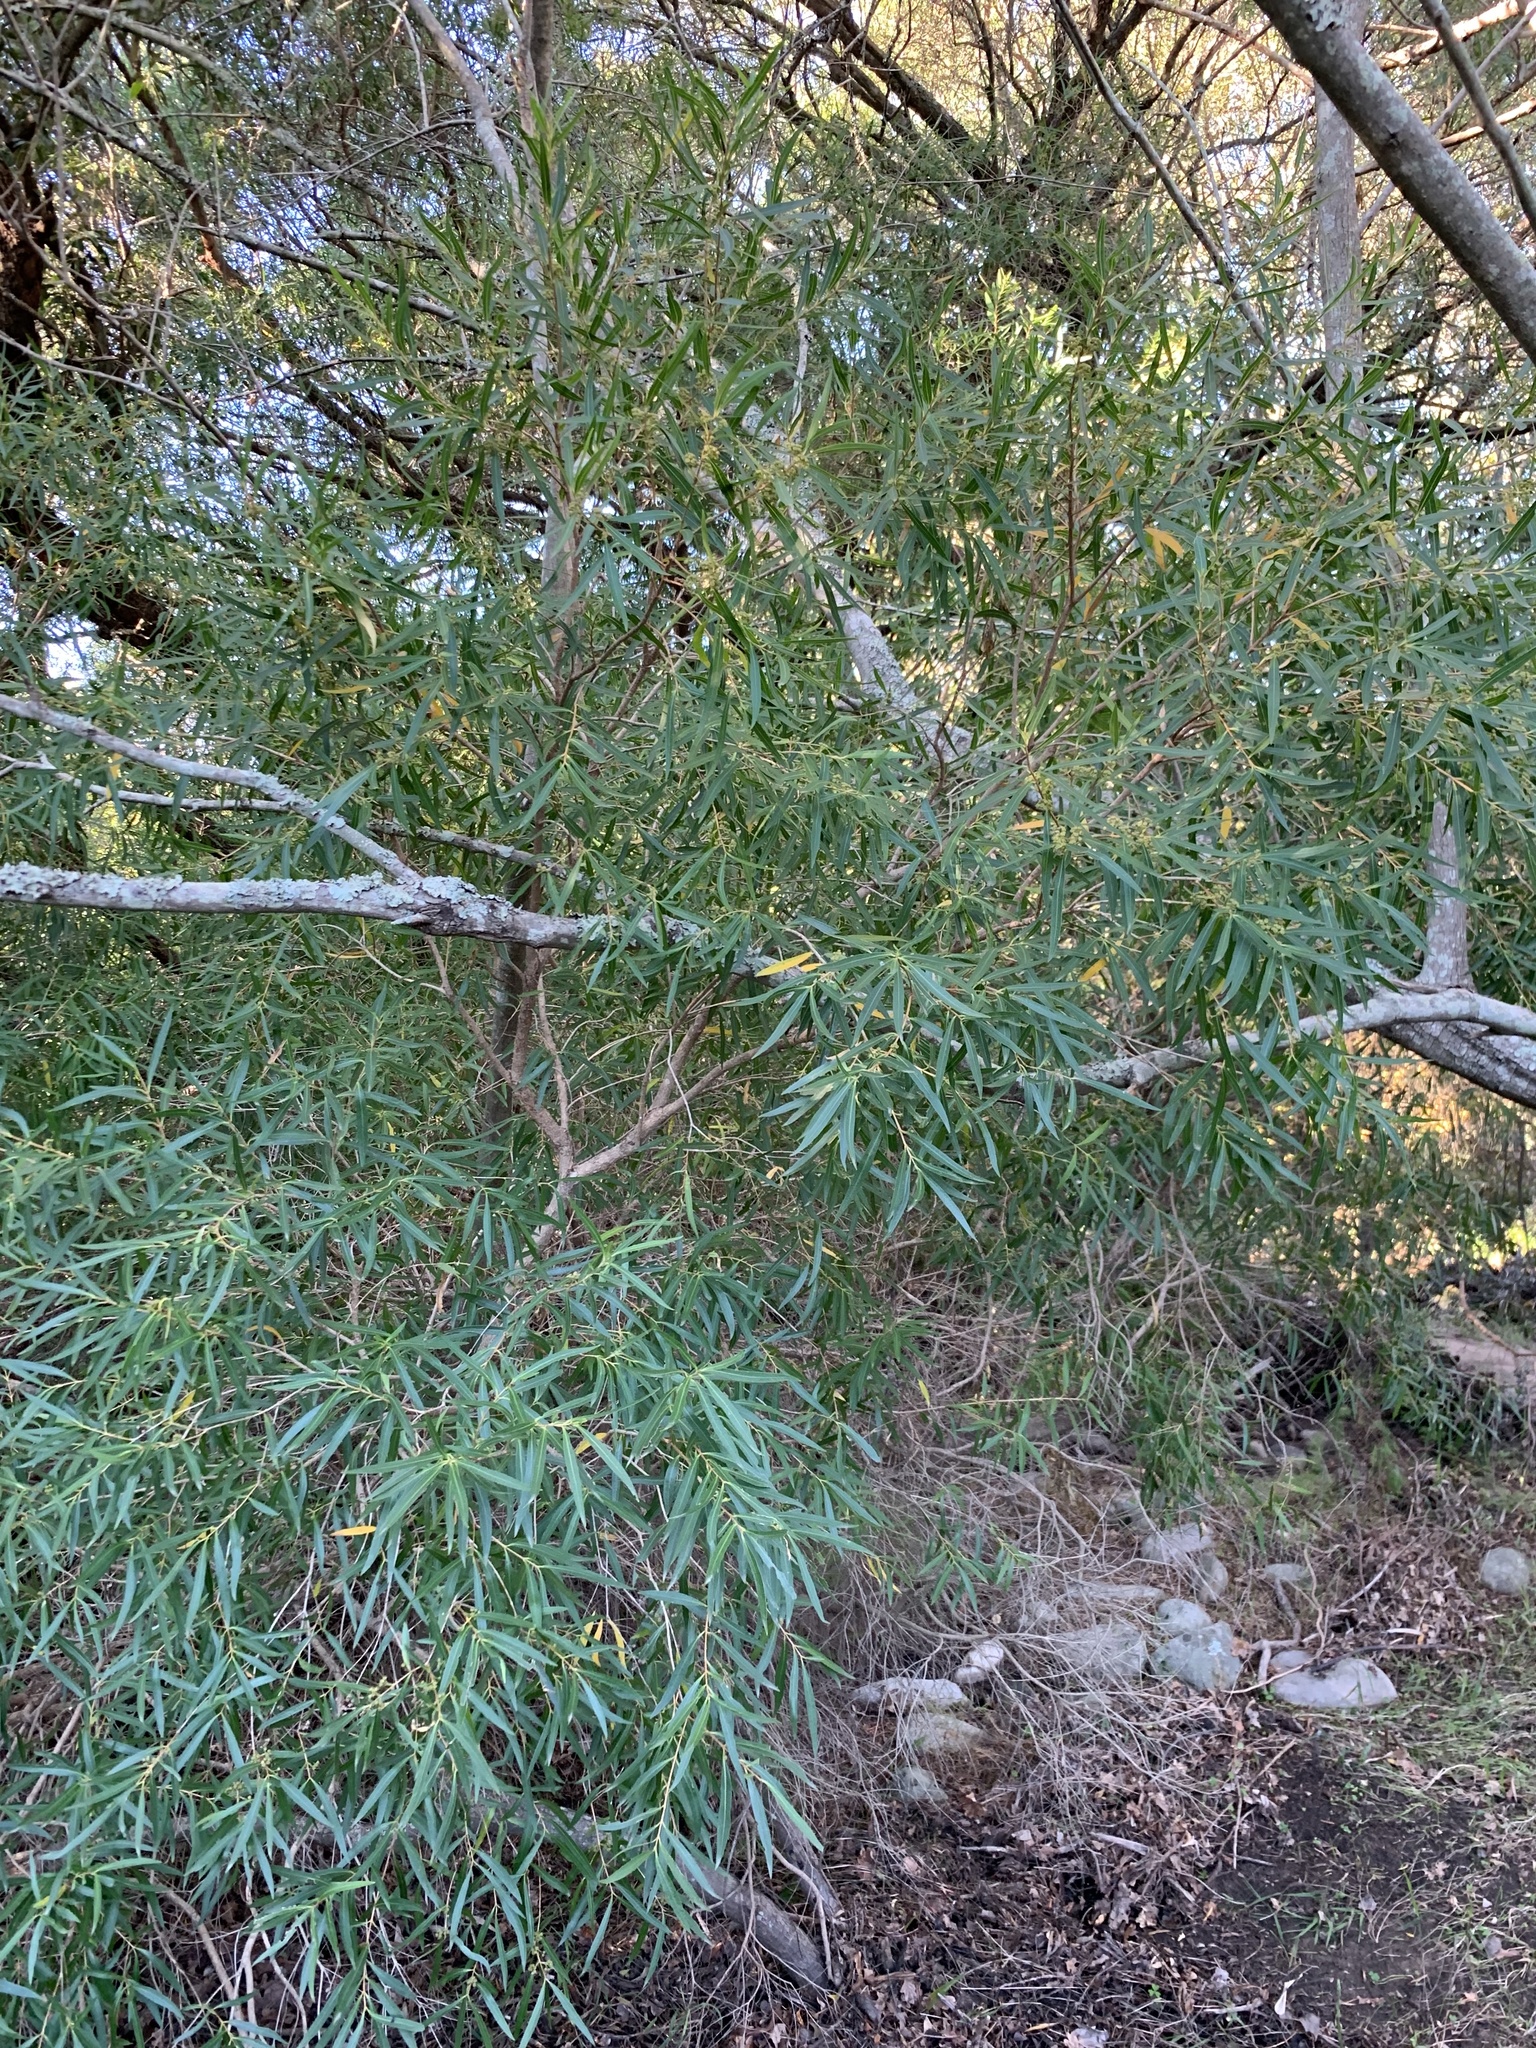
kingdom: Plantae
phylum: Tracheophyta
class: Magnoliopsida
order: Myrtales
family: Myrtaceae
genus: Callistemon
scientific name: Callistemon lanceolatus
